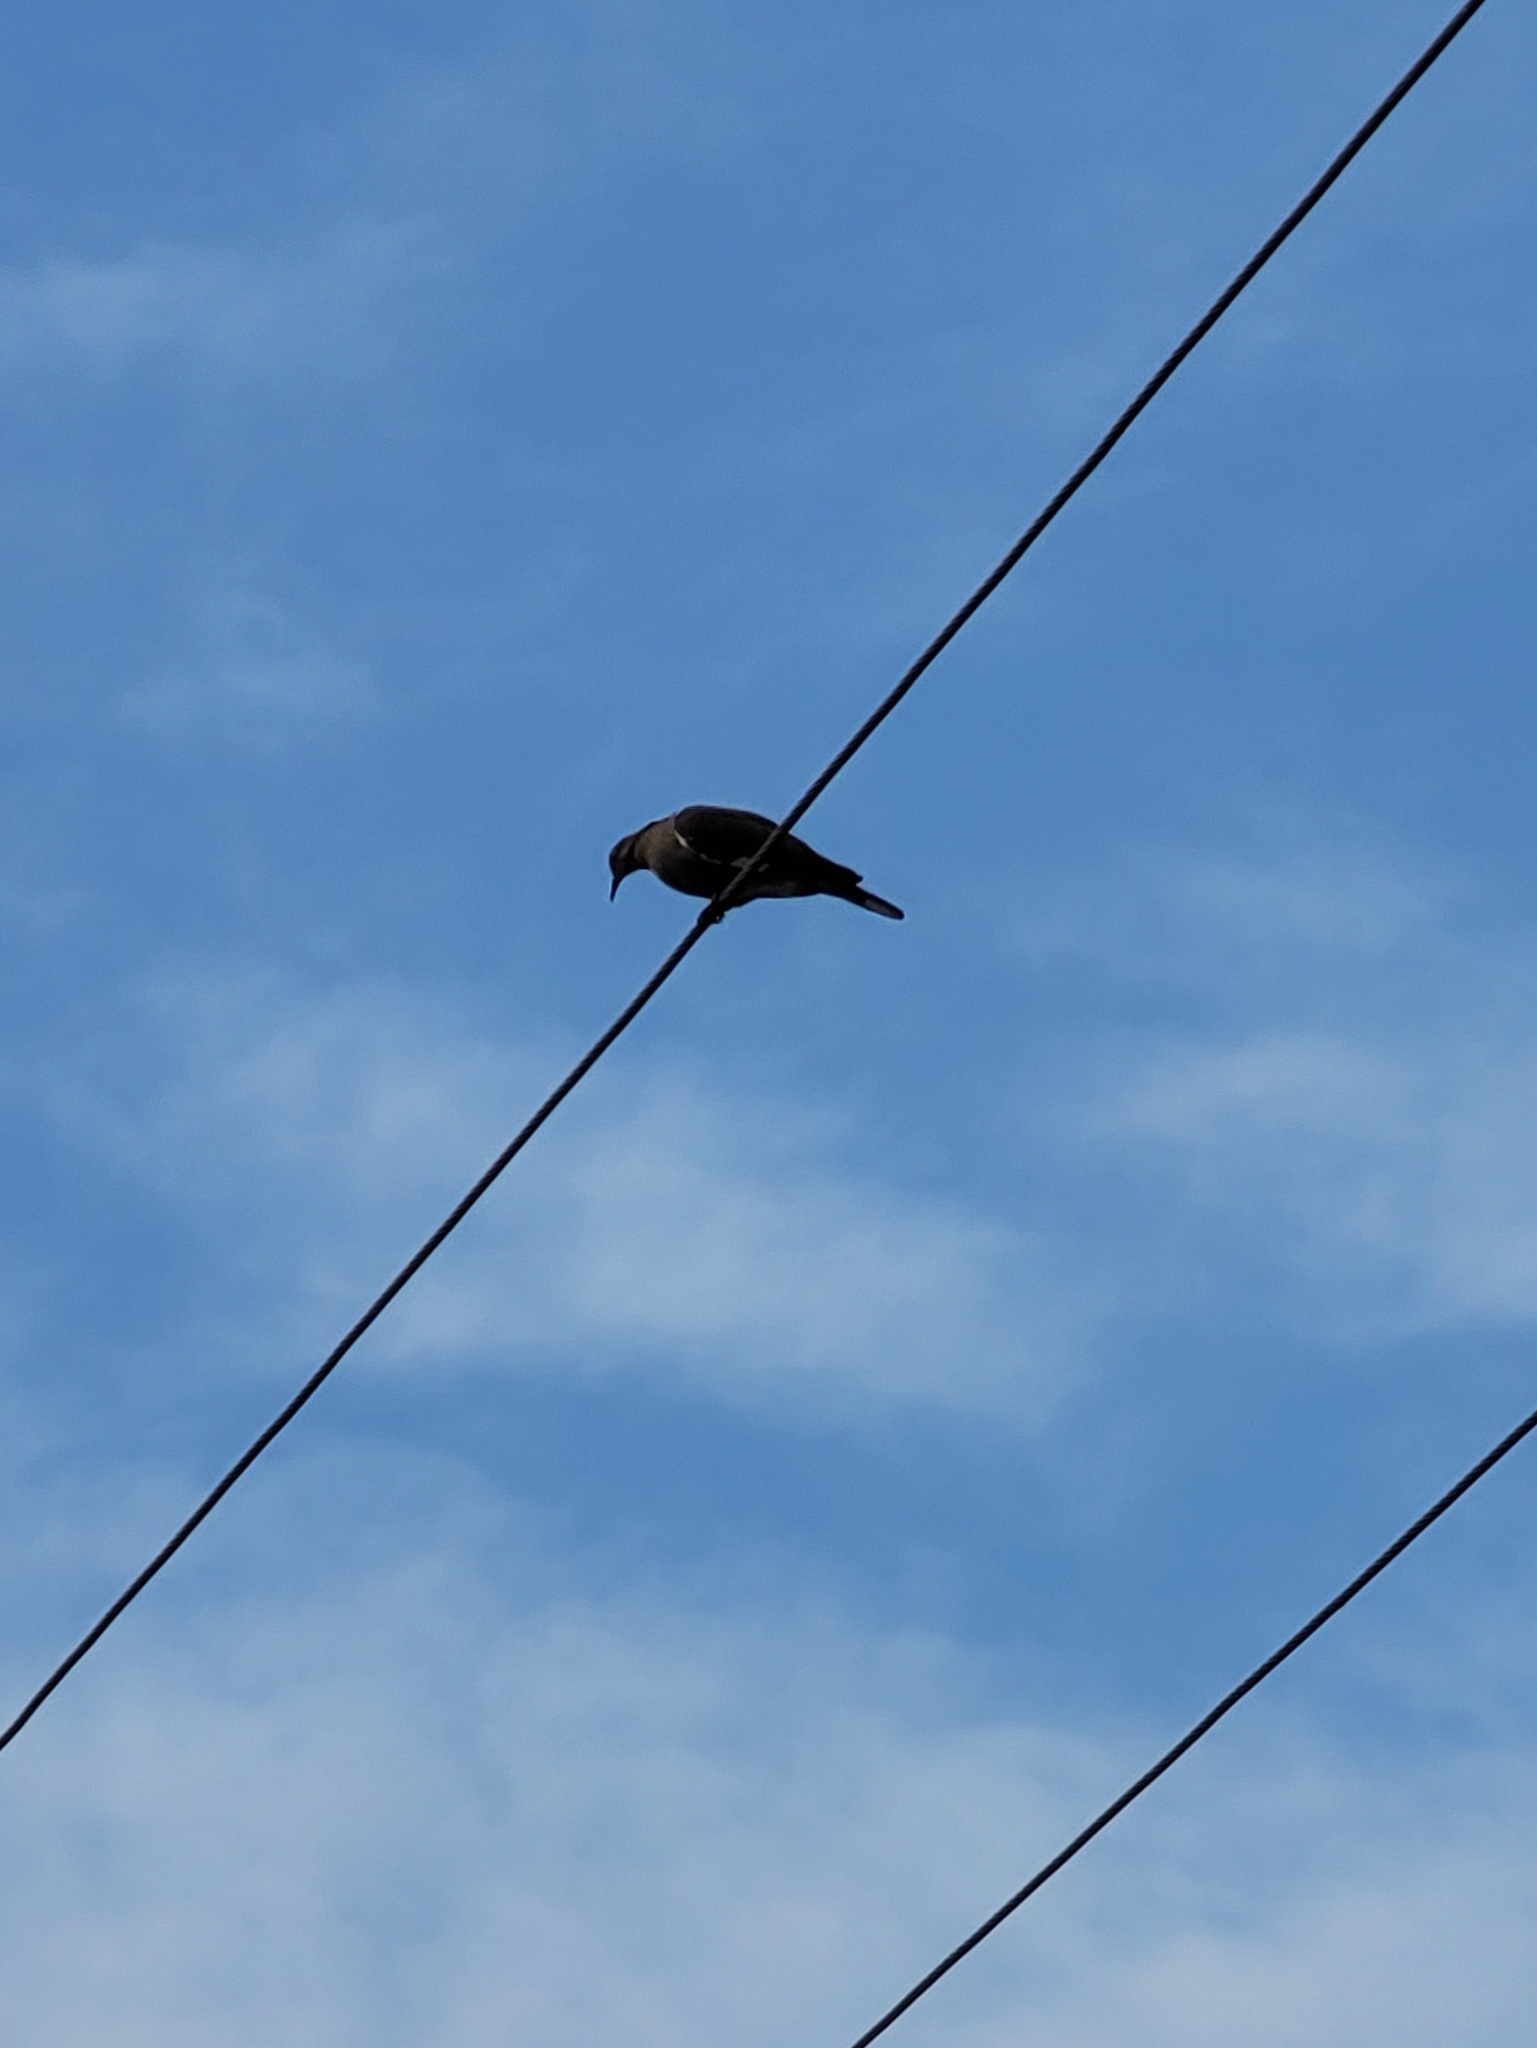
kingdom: Animalia
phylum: Chordata
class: Aves
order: Columbiformes
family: Columbidae
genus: Zenaida
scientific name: Zenaida asiatica
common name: White-winged dove
